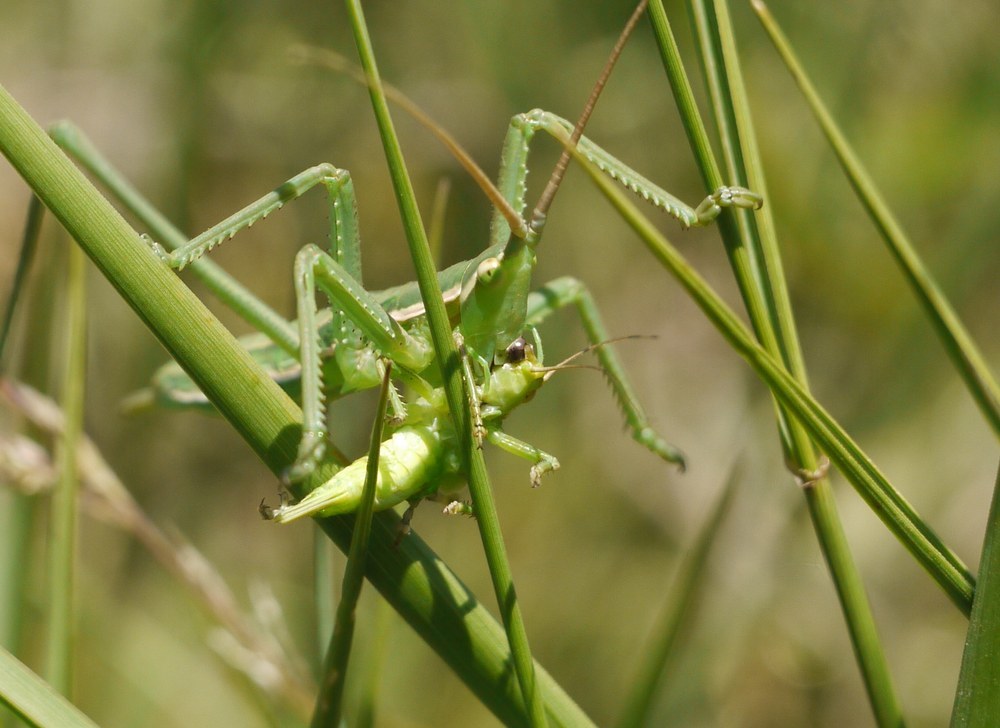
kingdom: Animalia
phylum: Arthropoda
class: Insecta
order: Orthoptera
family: Tettigoniidae
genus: Saga
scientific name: Saga pedo
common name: Common predatory bush-cricket
